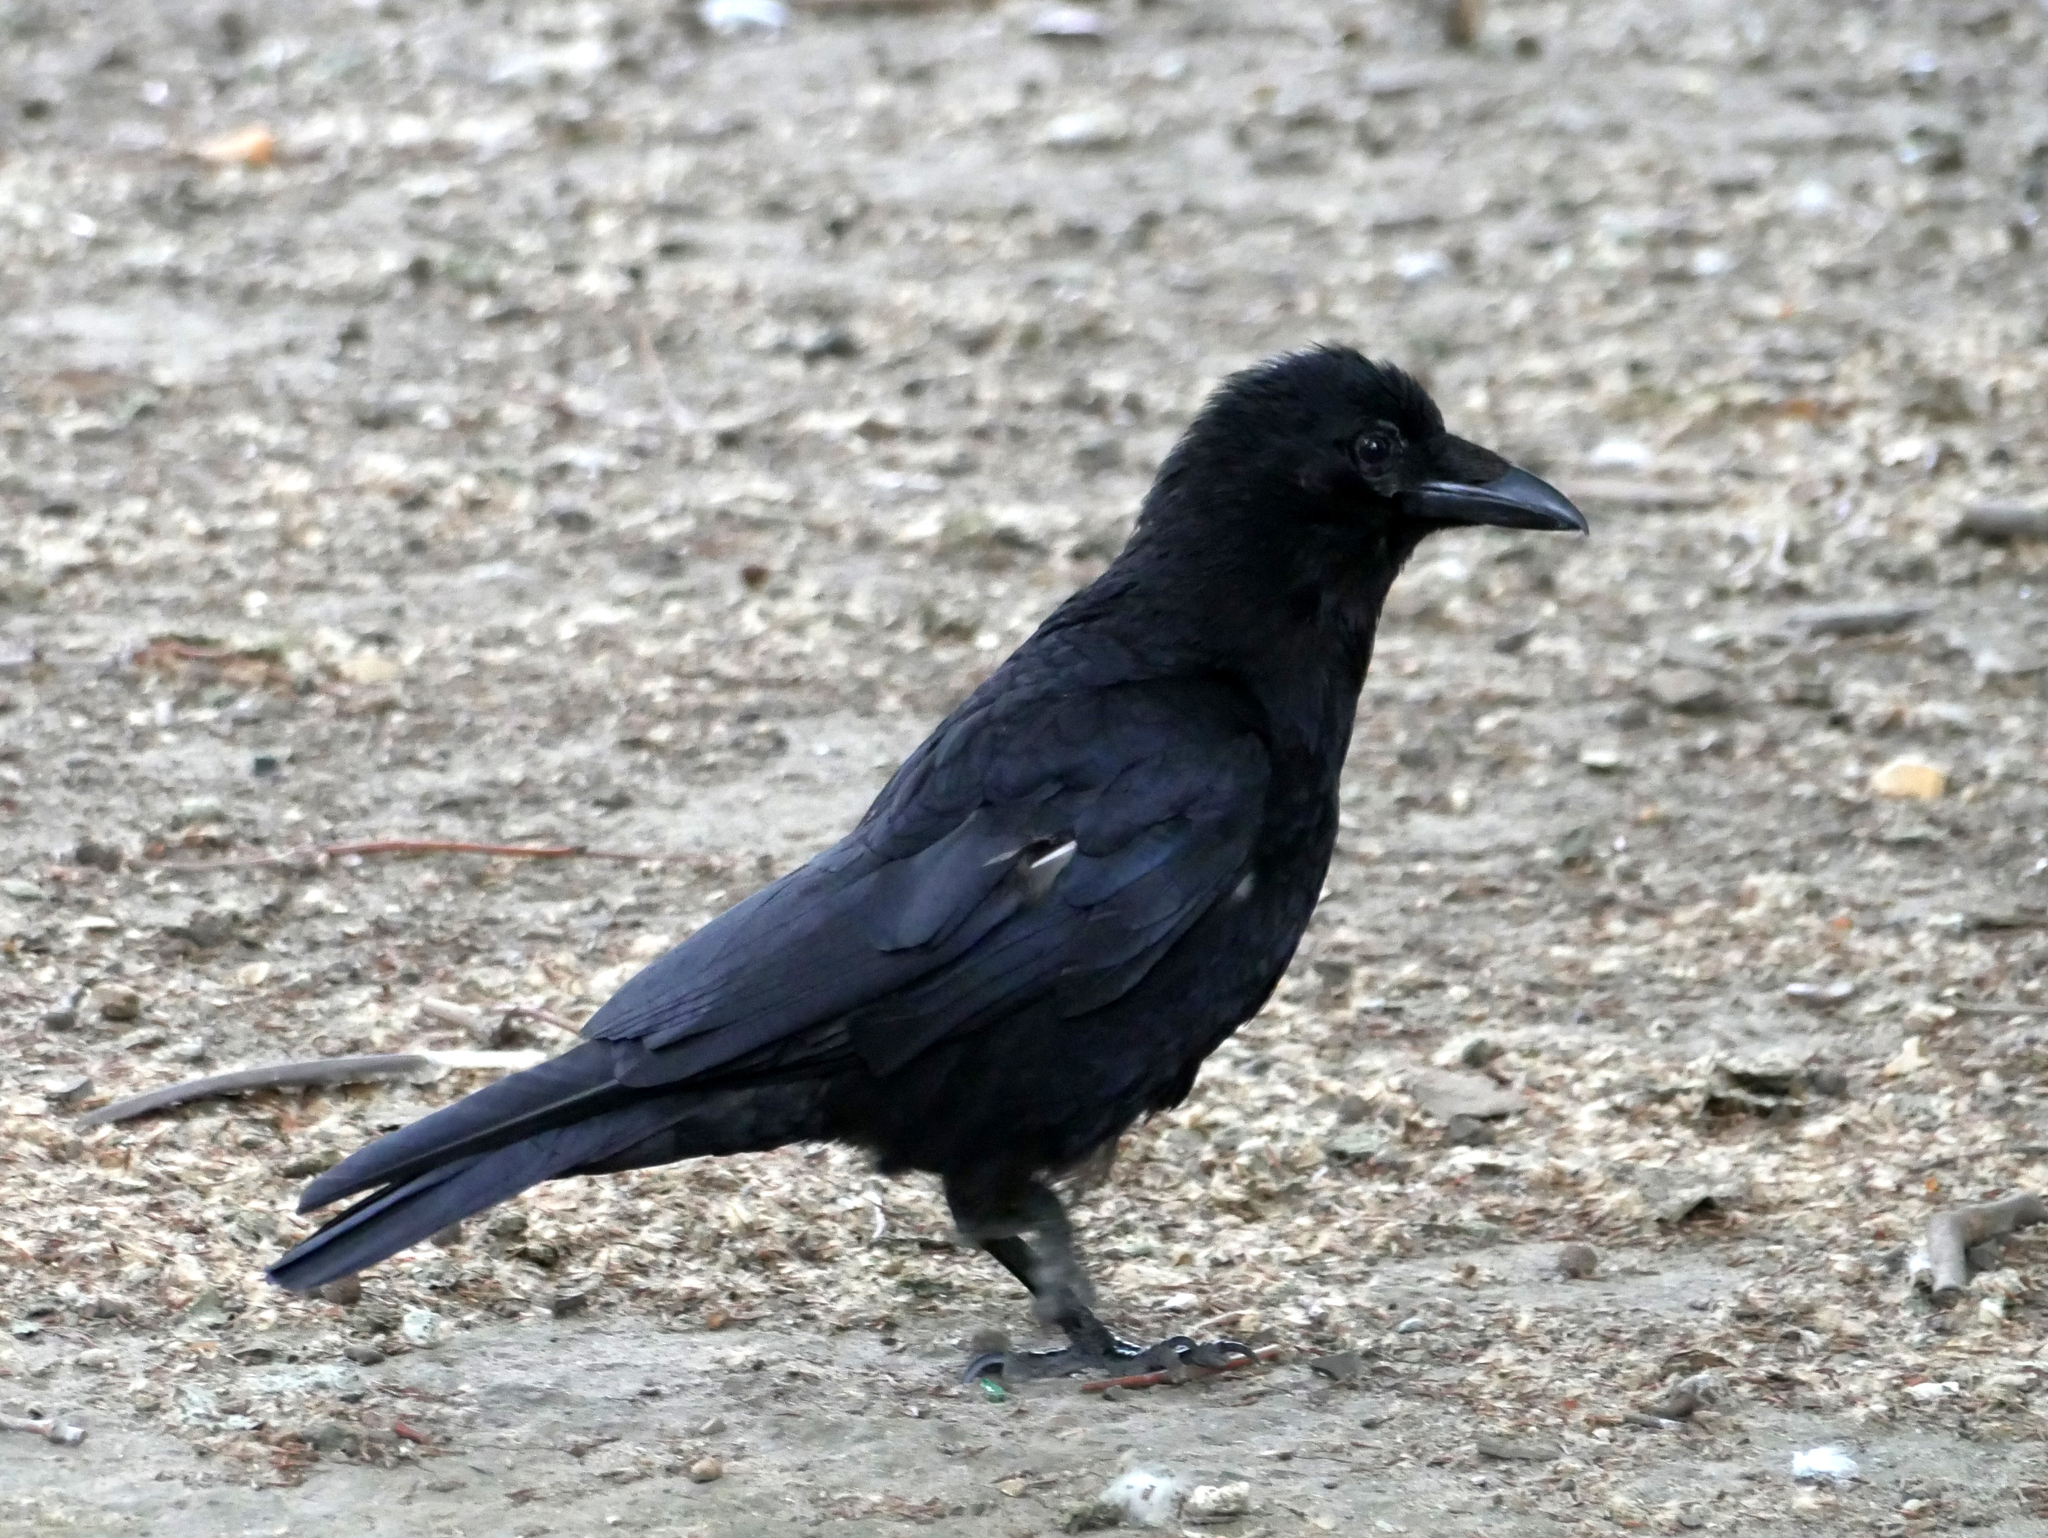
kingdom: Animalia
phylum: Chordata
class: Aves
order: Passeriformes
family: Corvidae
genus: Corvus
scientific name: Corvus corone
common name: Carrion crow
